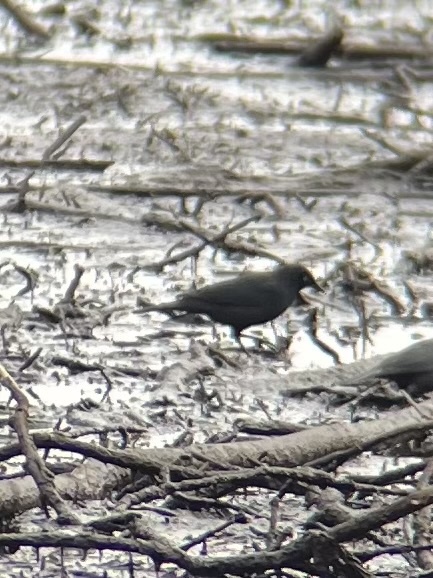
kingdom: Animalia
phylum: Chordata
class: Aves
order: Passeriformes
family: Icteridae
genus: Euphagus
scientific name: Euphagus carolinus
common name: Rusty blackbird
